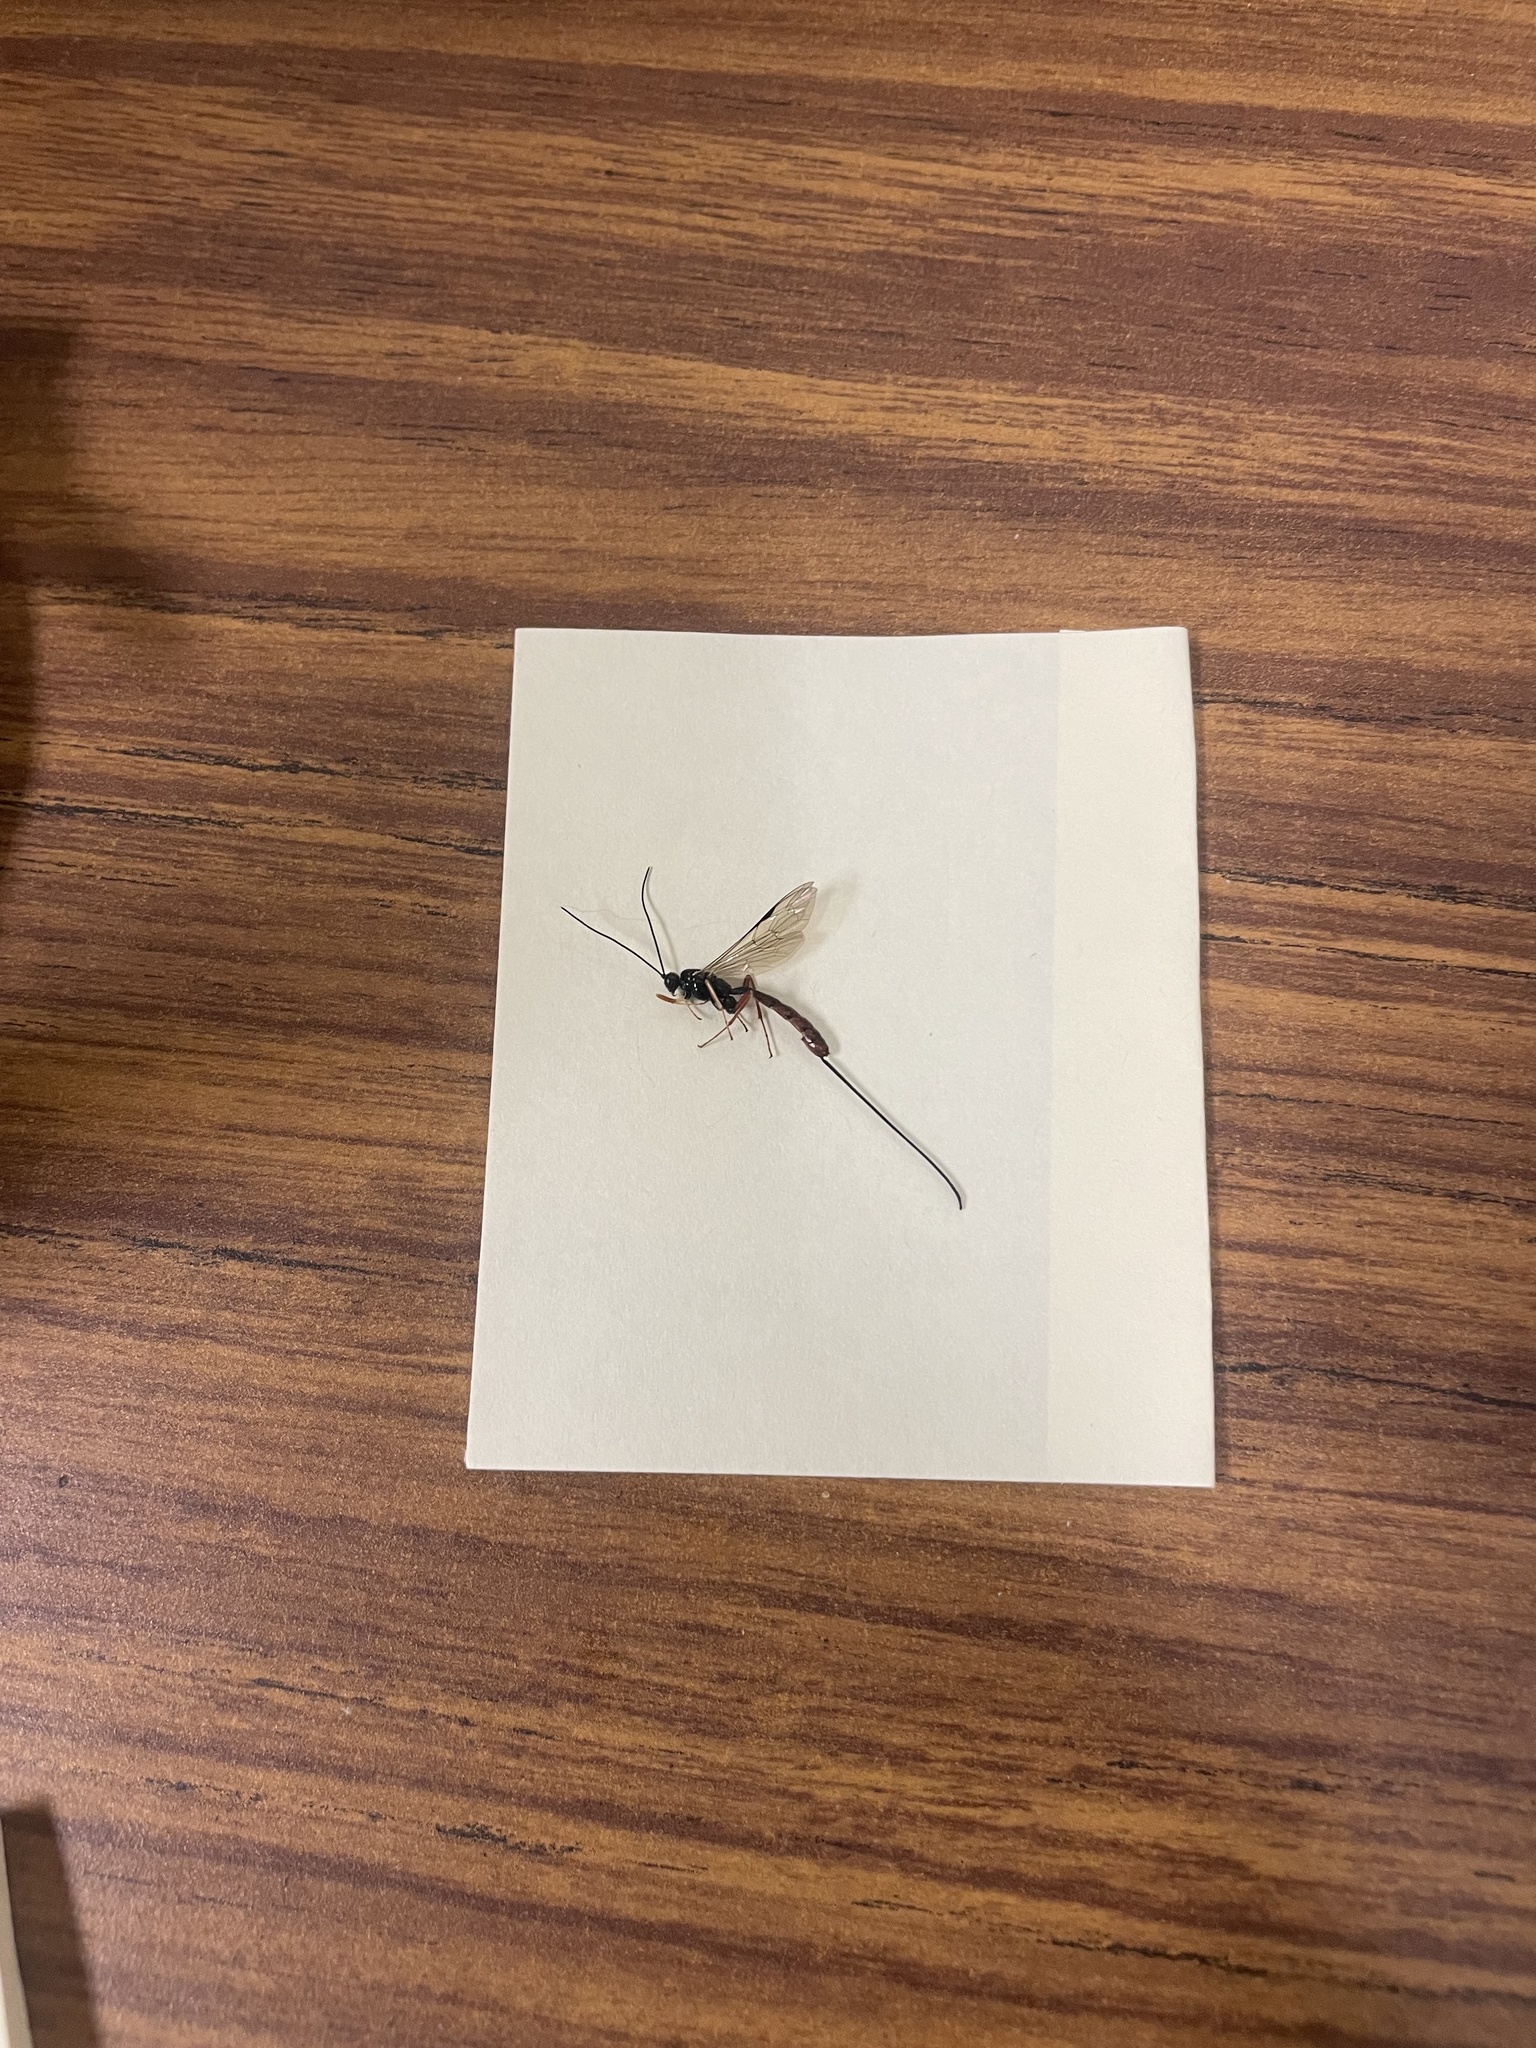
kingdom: Animalia
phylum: Arthropoda
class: Insecta
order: Hymenoptera
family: Ichneumonidae
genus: Dolichomitus
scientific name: Dolichomitus irritator
